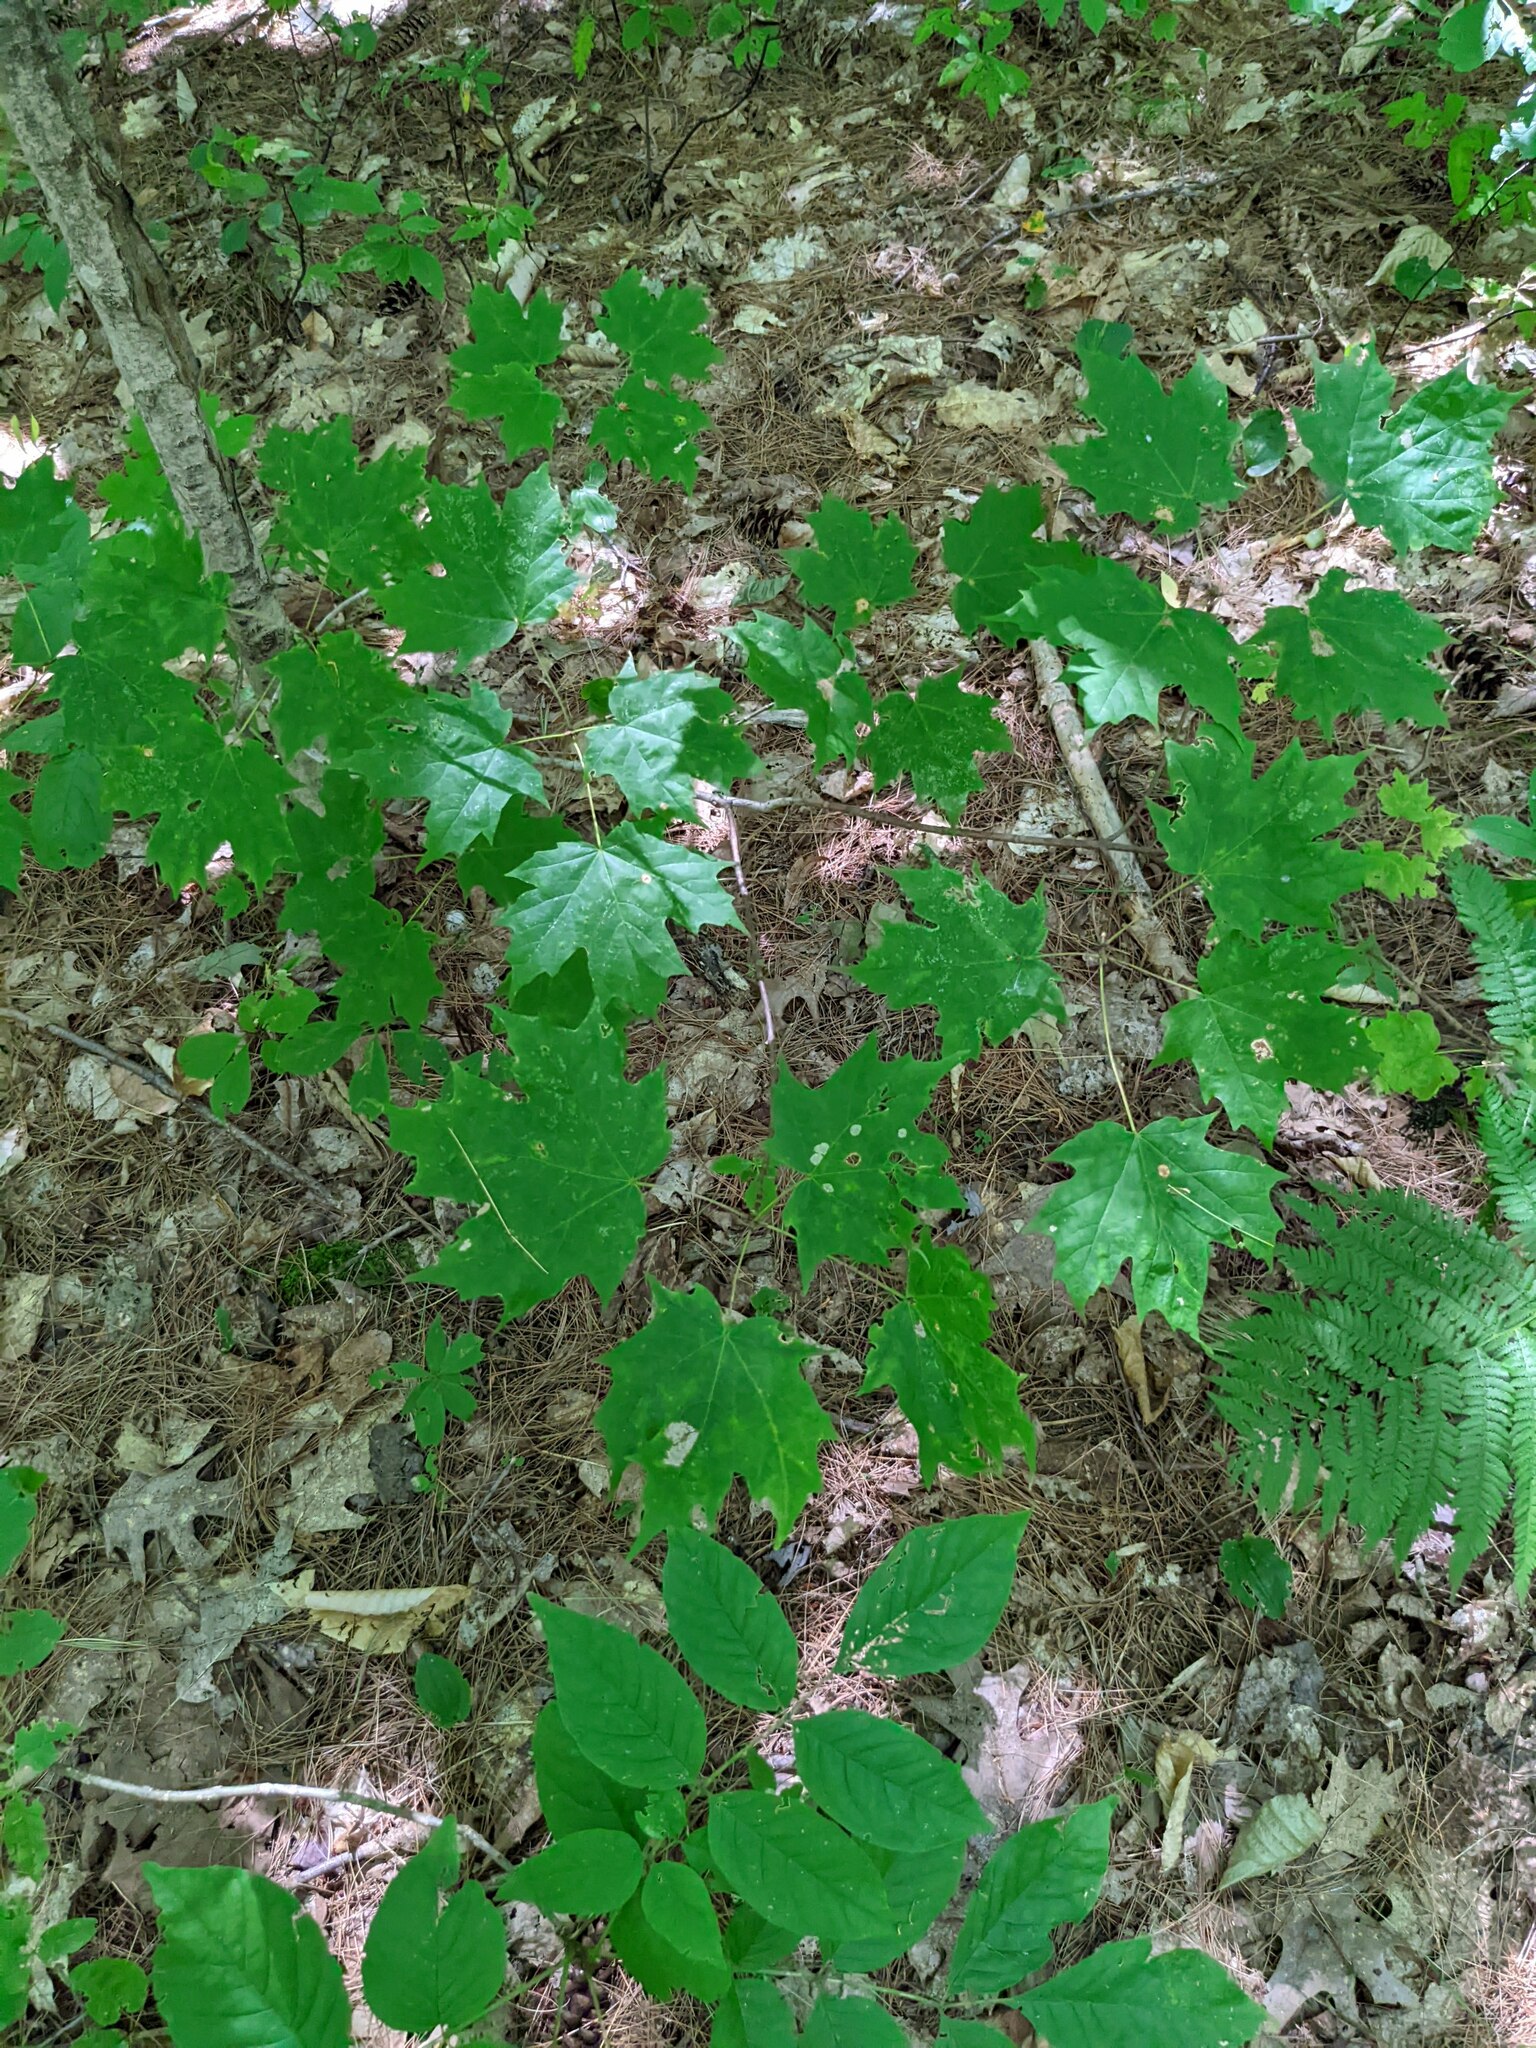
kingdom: Plantae
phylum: Tracheophyta
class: Magnoliopsida
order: Sapindales
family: Sapindaceae
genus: Acer
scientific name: Acer saccharum
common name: Sugar maple
